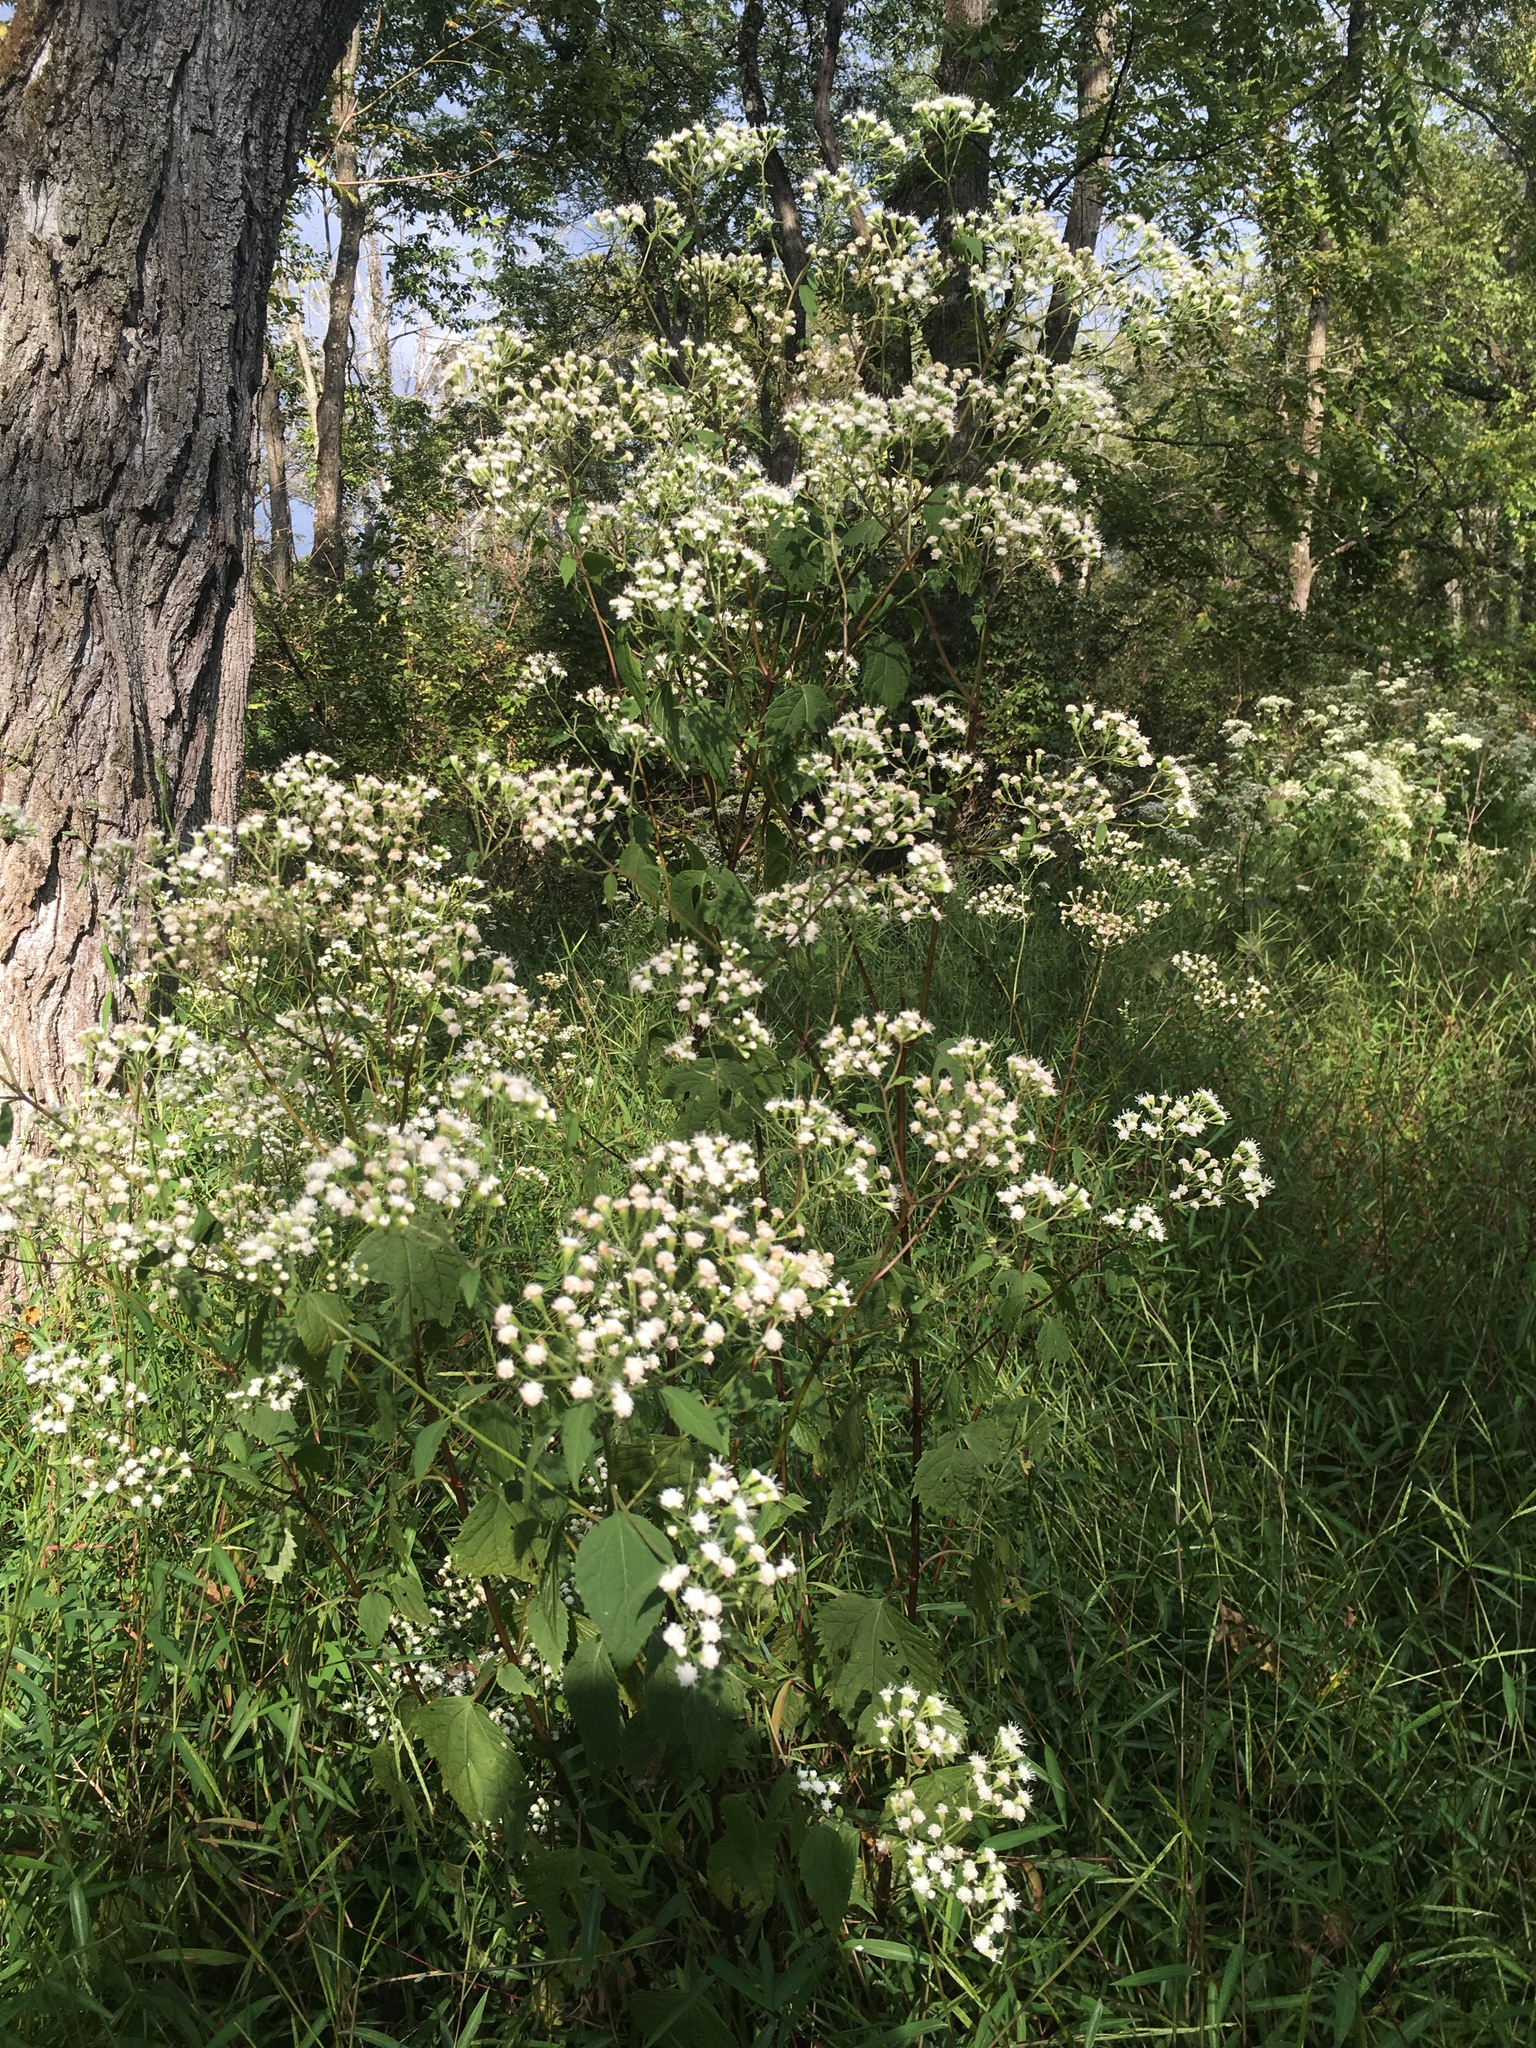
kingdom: Plantae
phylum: Tracheophyta
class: Magnoliopsida
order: Asterales
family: Asteraceae
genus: Ageratina
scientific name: Ageratina altissima
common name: White snakeroot
